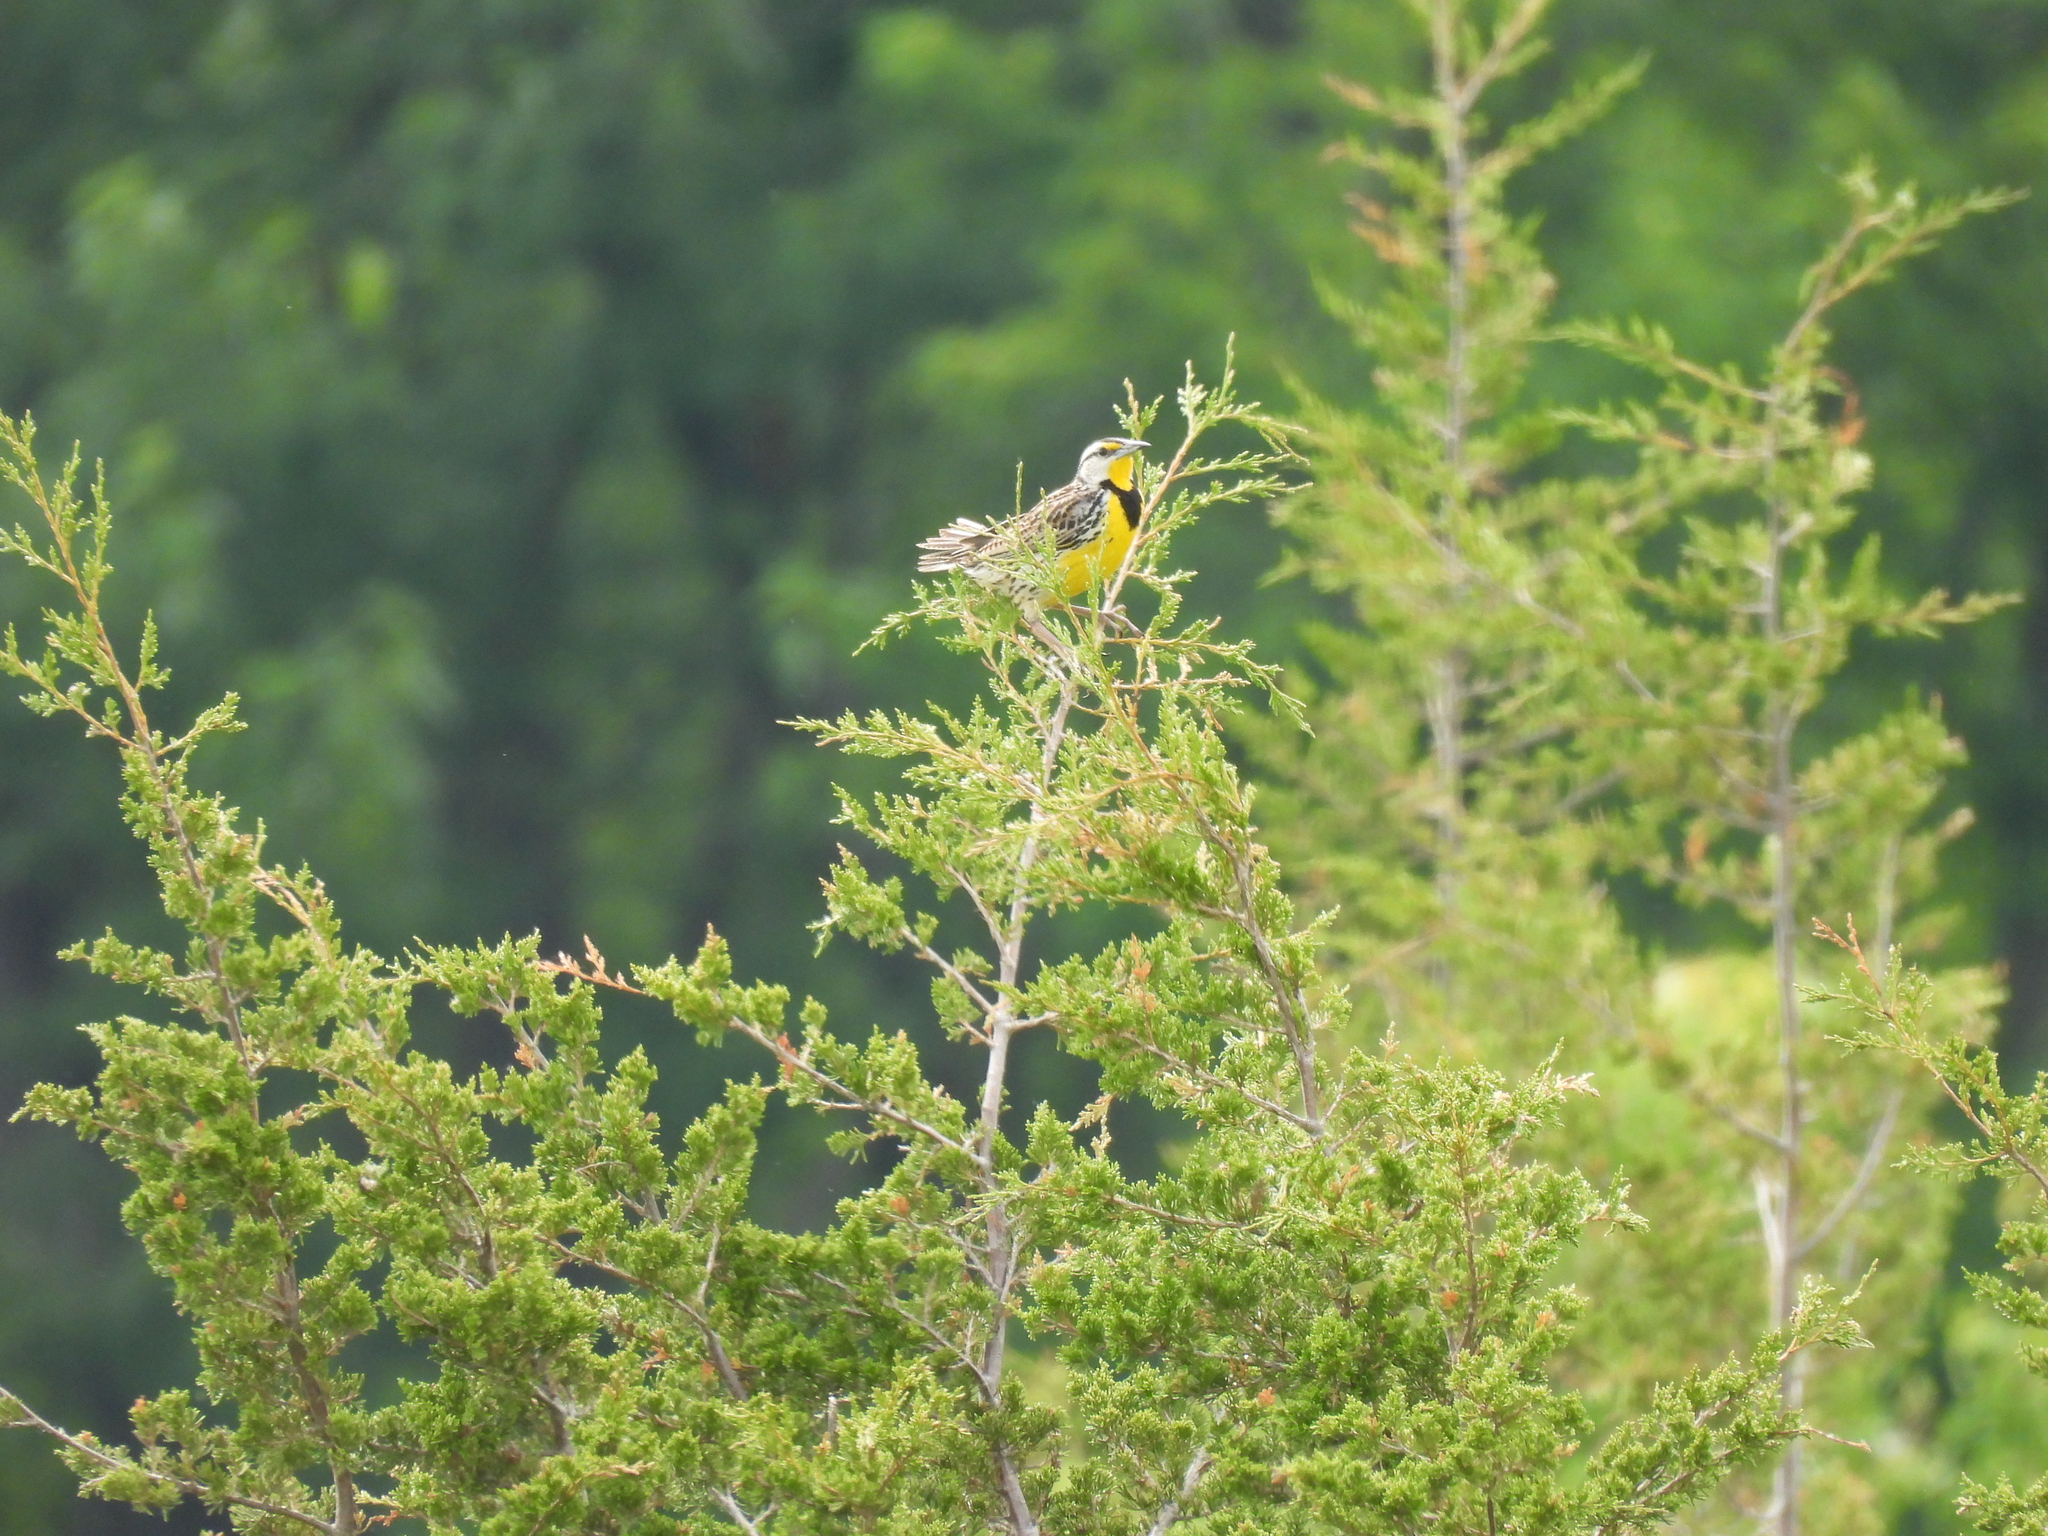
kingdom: Animalia
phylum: Chordata
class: Aves
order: Passeriformes
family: Icteridae
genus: Sturnella
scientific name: Sturnella magna
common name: Eastern meadowlark
